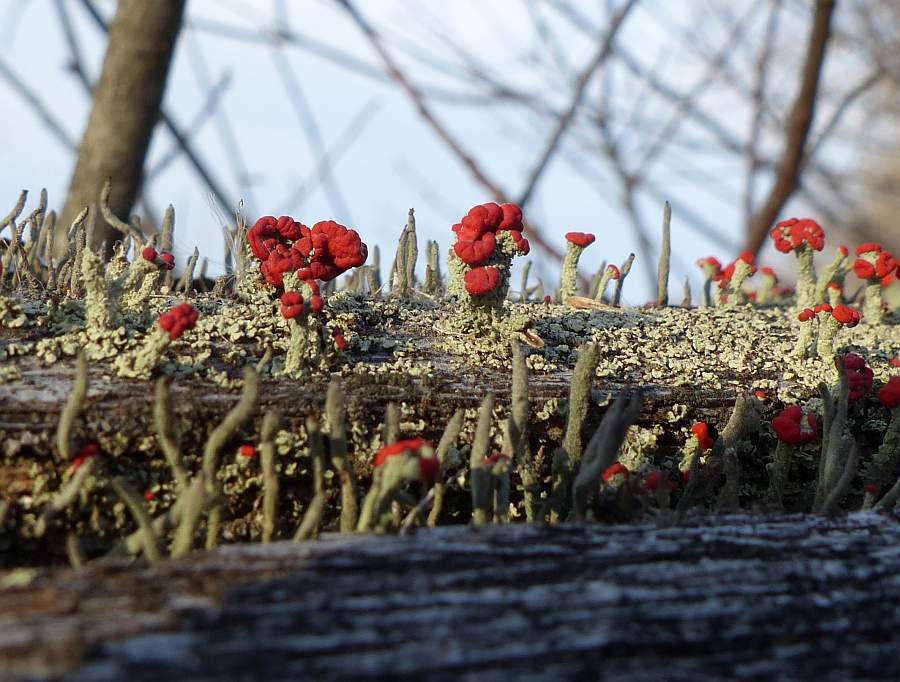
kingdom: Fungi
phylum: Ascomycota
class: Lecanoromycetes
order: Lecanorales
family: Cladoniaceae
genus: Cladonia
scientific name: Cladonia cristatella
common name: British soldier lichen
